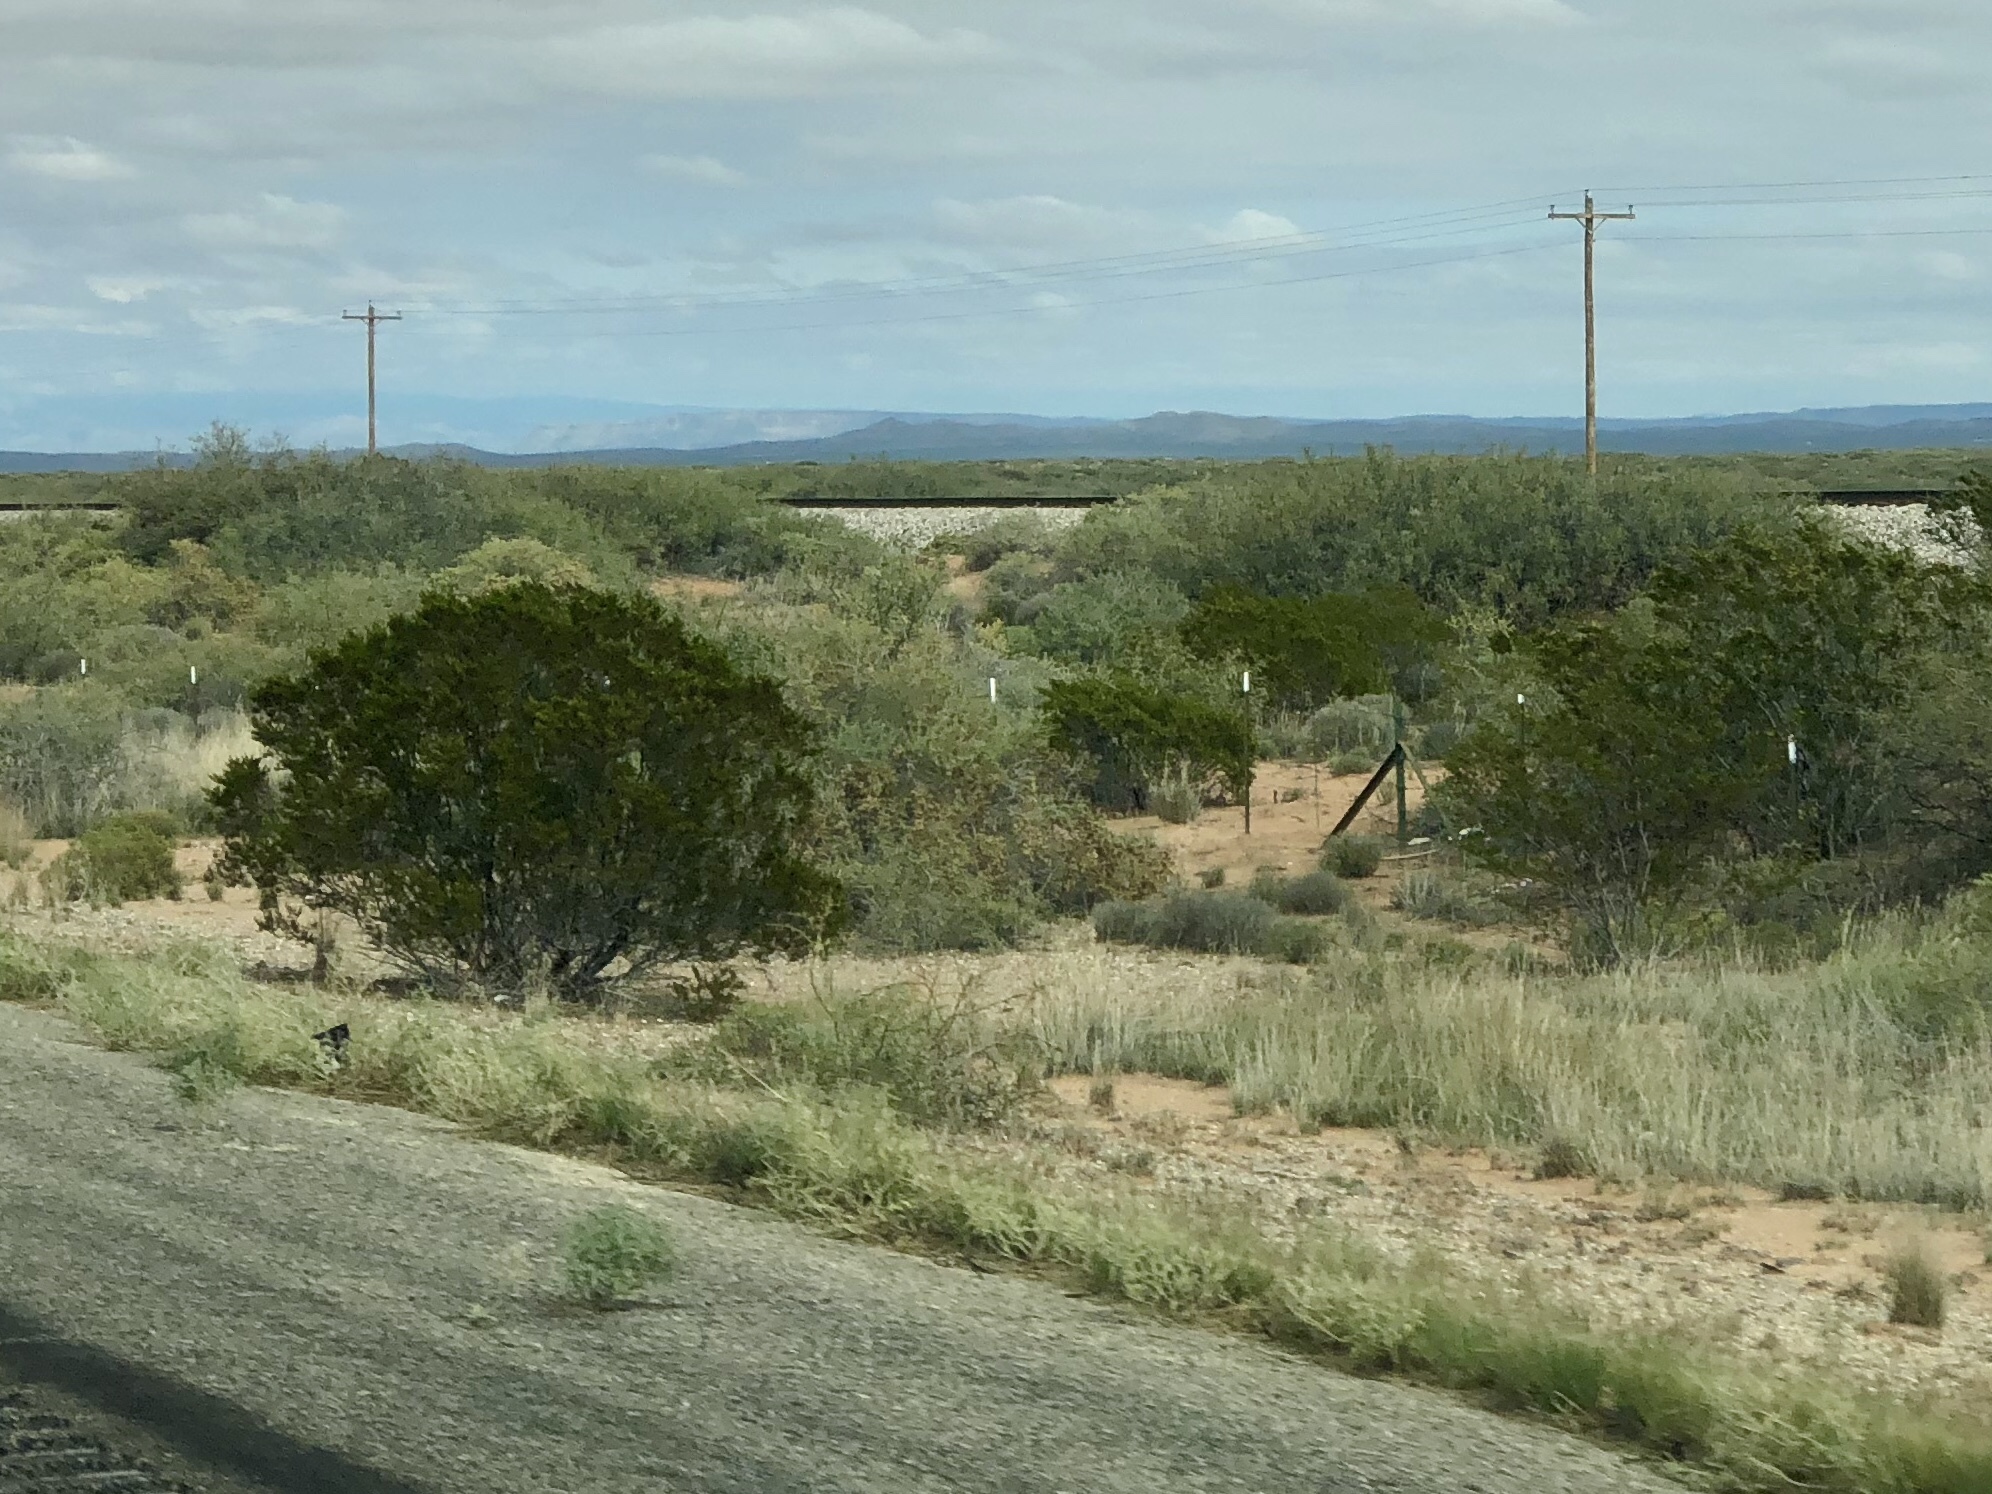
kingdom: Plantae
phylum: Tracheophyta
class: Magnoliopsida
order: Zygophyllales
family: Zygophyllaceae
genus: Larrea
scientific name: Larrea tridentata
